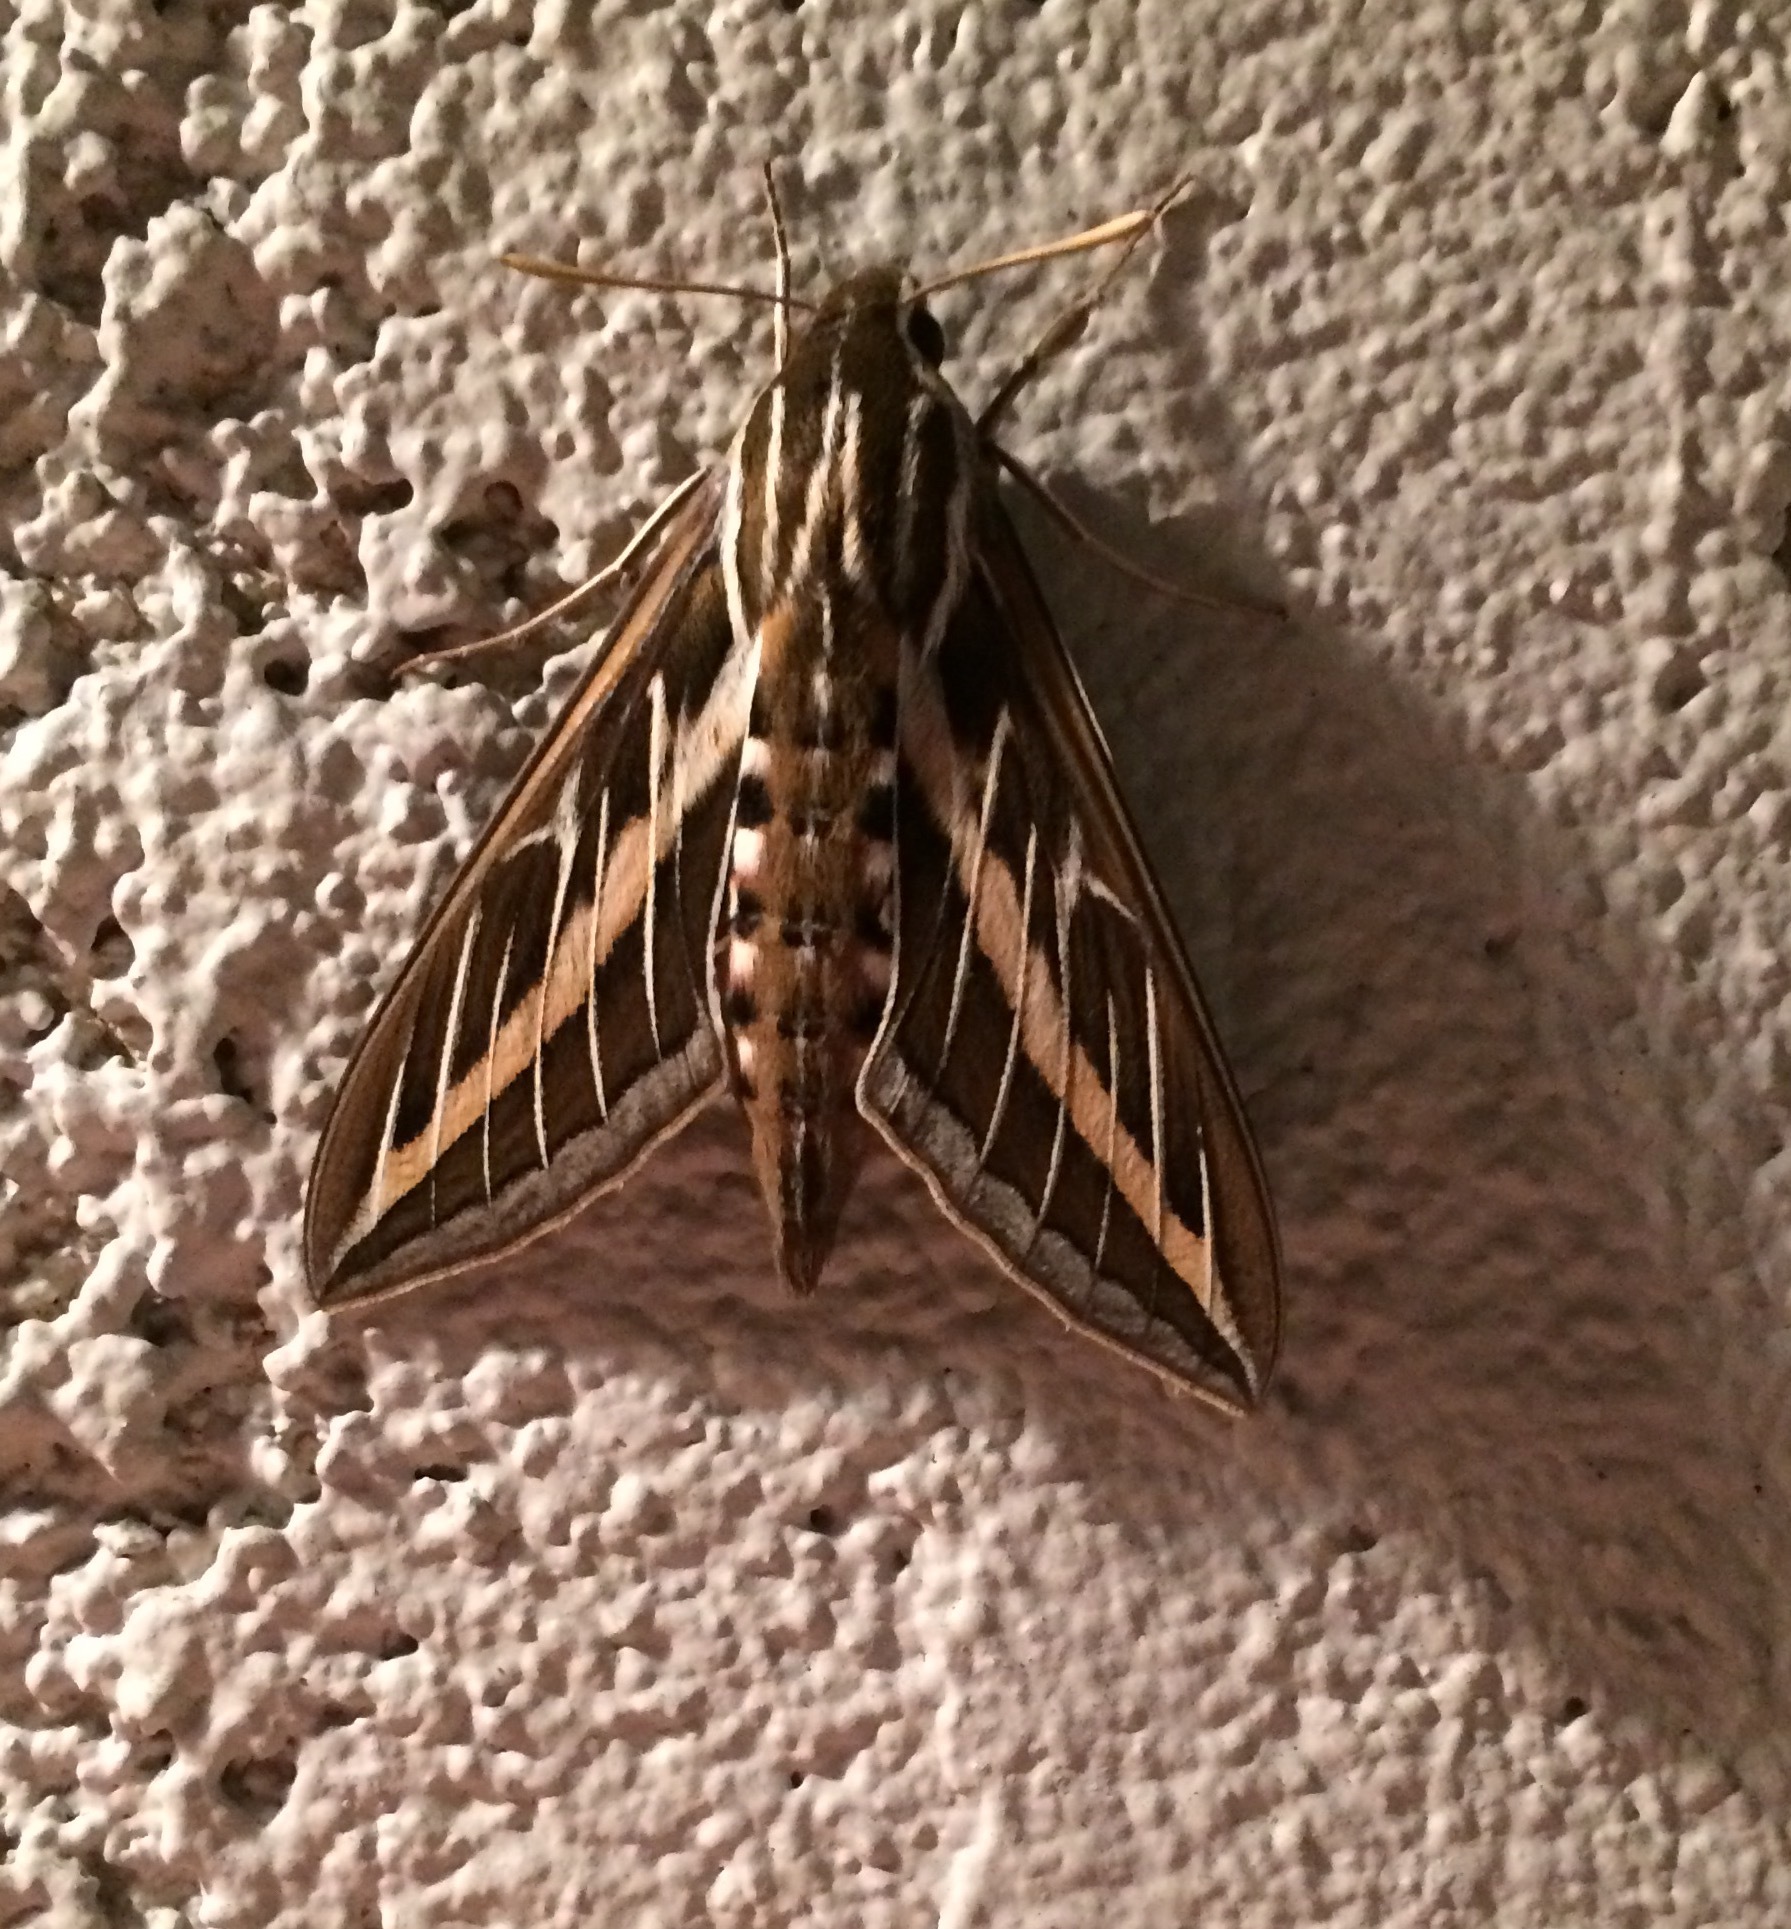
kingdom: Animalia
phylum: Arthropoda
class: Insecta
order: Lepidoptera
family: Sphingidae
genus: Hyles
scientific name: Hyles lineata
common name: White-lined sphinx
